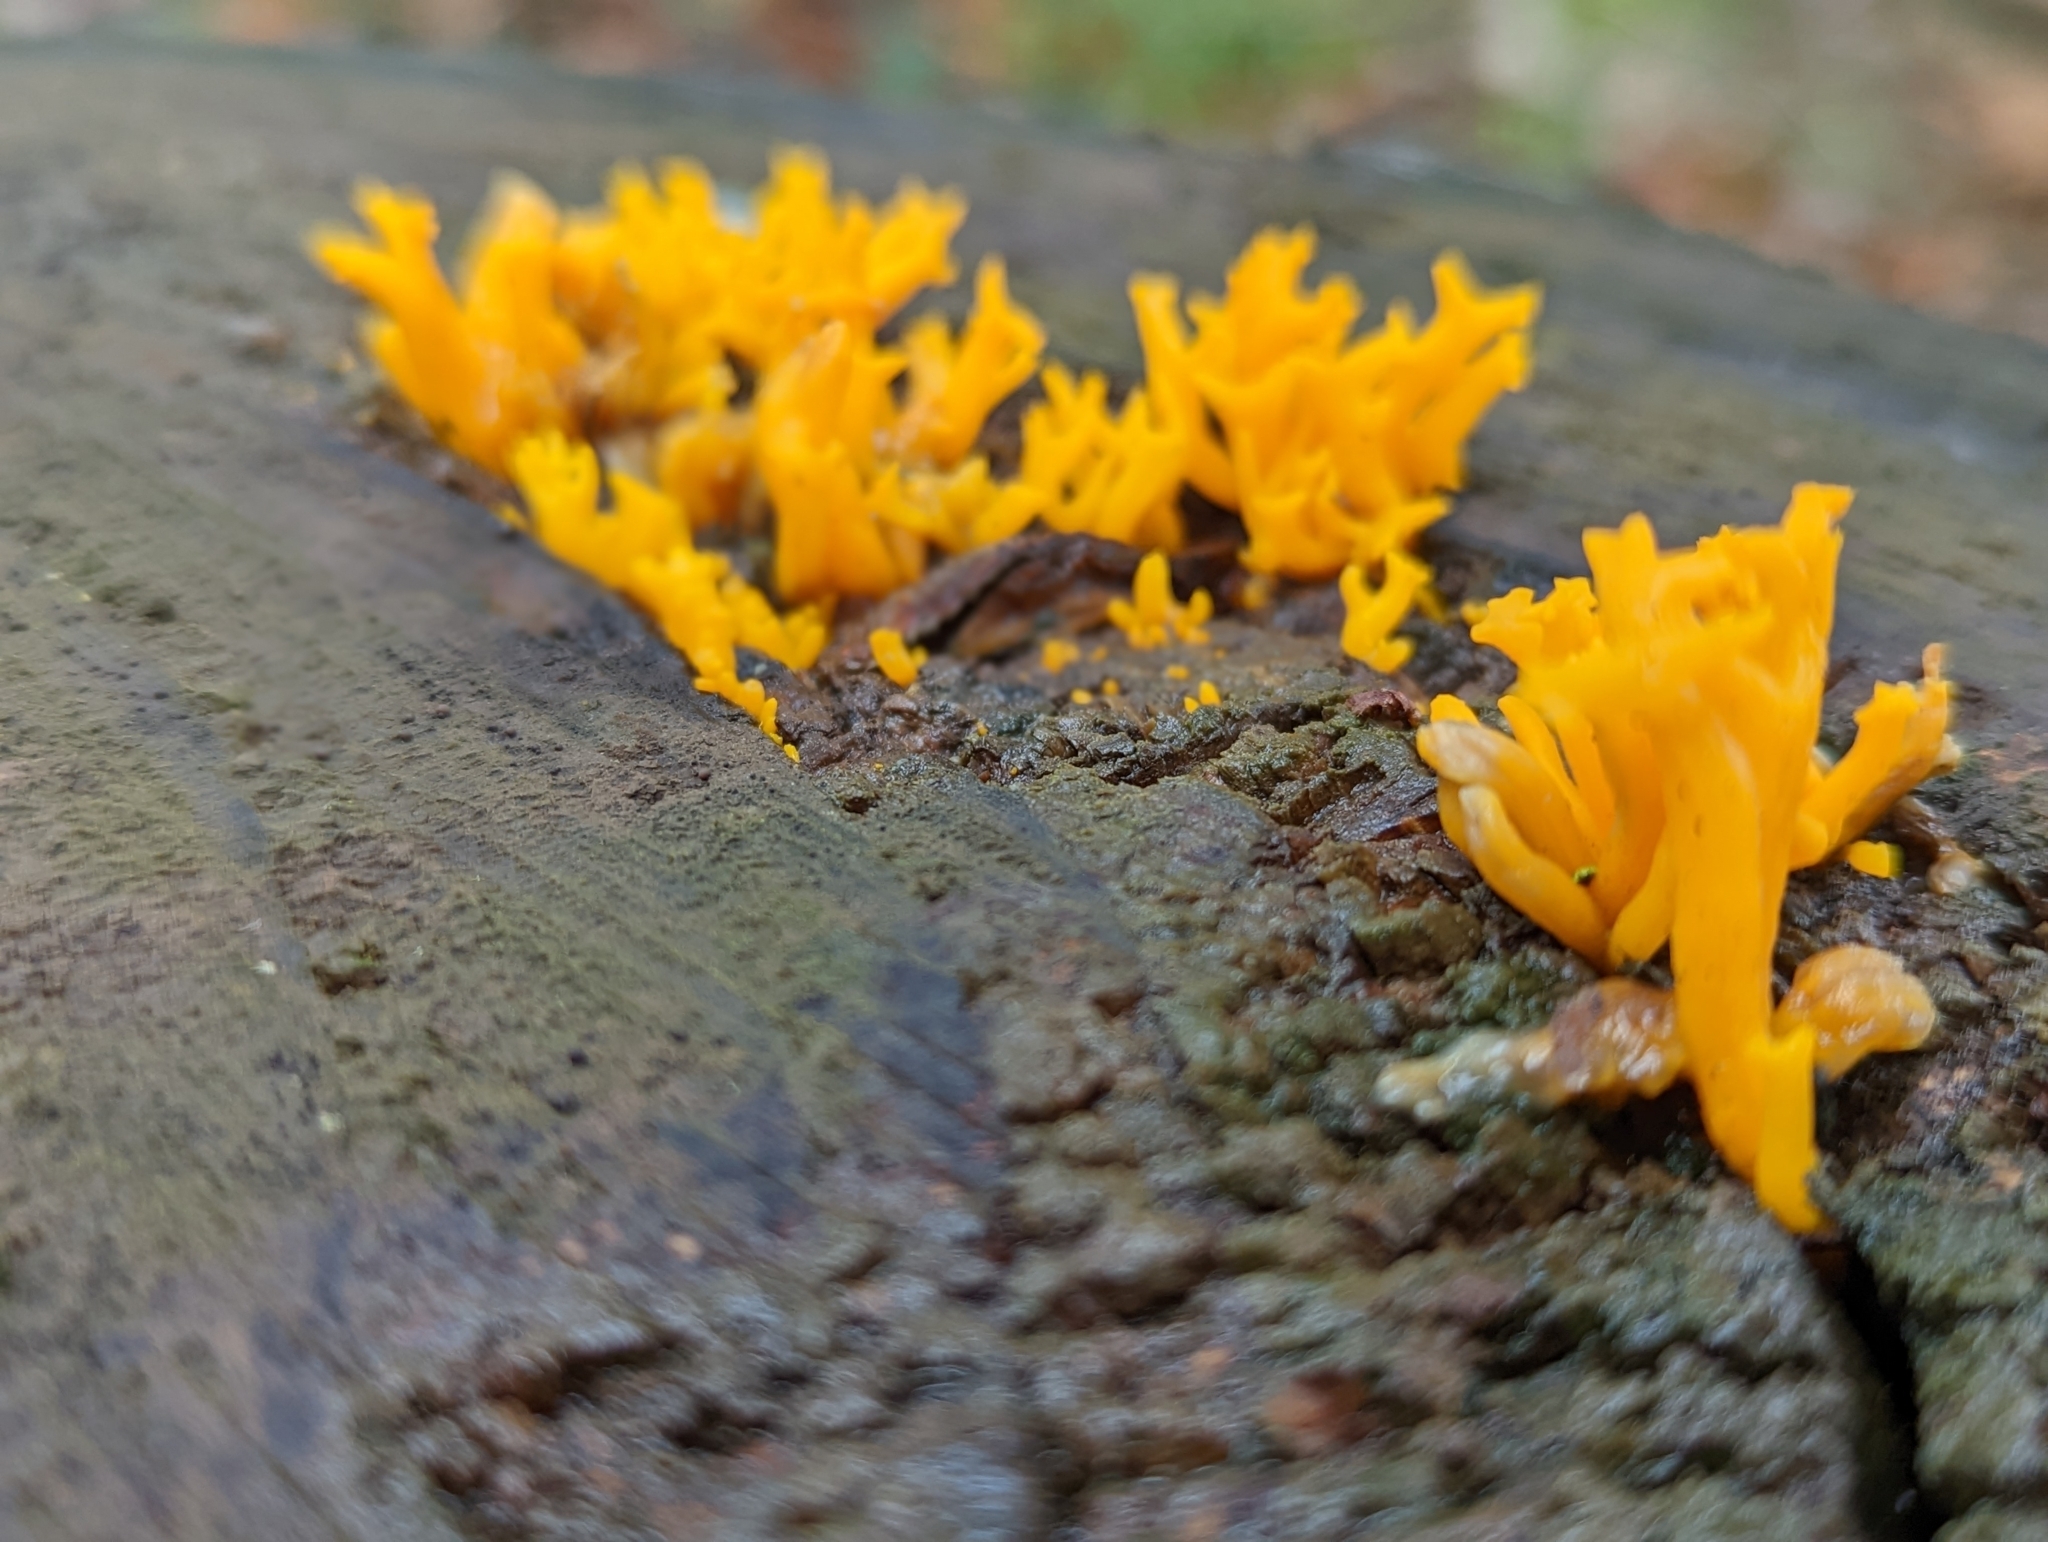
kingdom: Fungi
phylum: Basidiomycota
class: Dacrymycetes
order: Dacrymycetales
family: Dacrymycetaceae
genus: Calocera
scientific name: Calocera viscosa
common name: Yellow stagshorn
